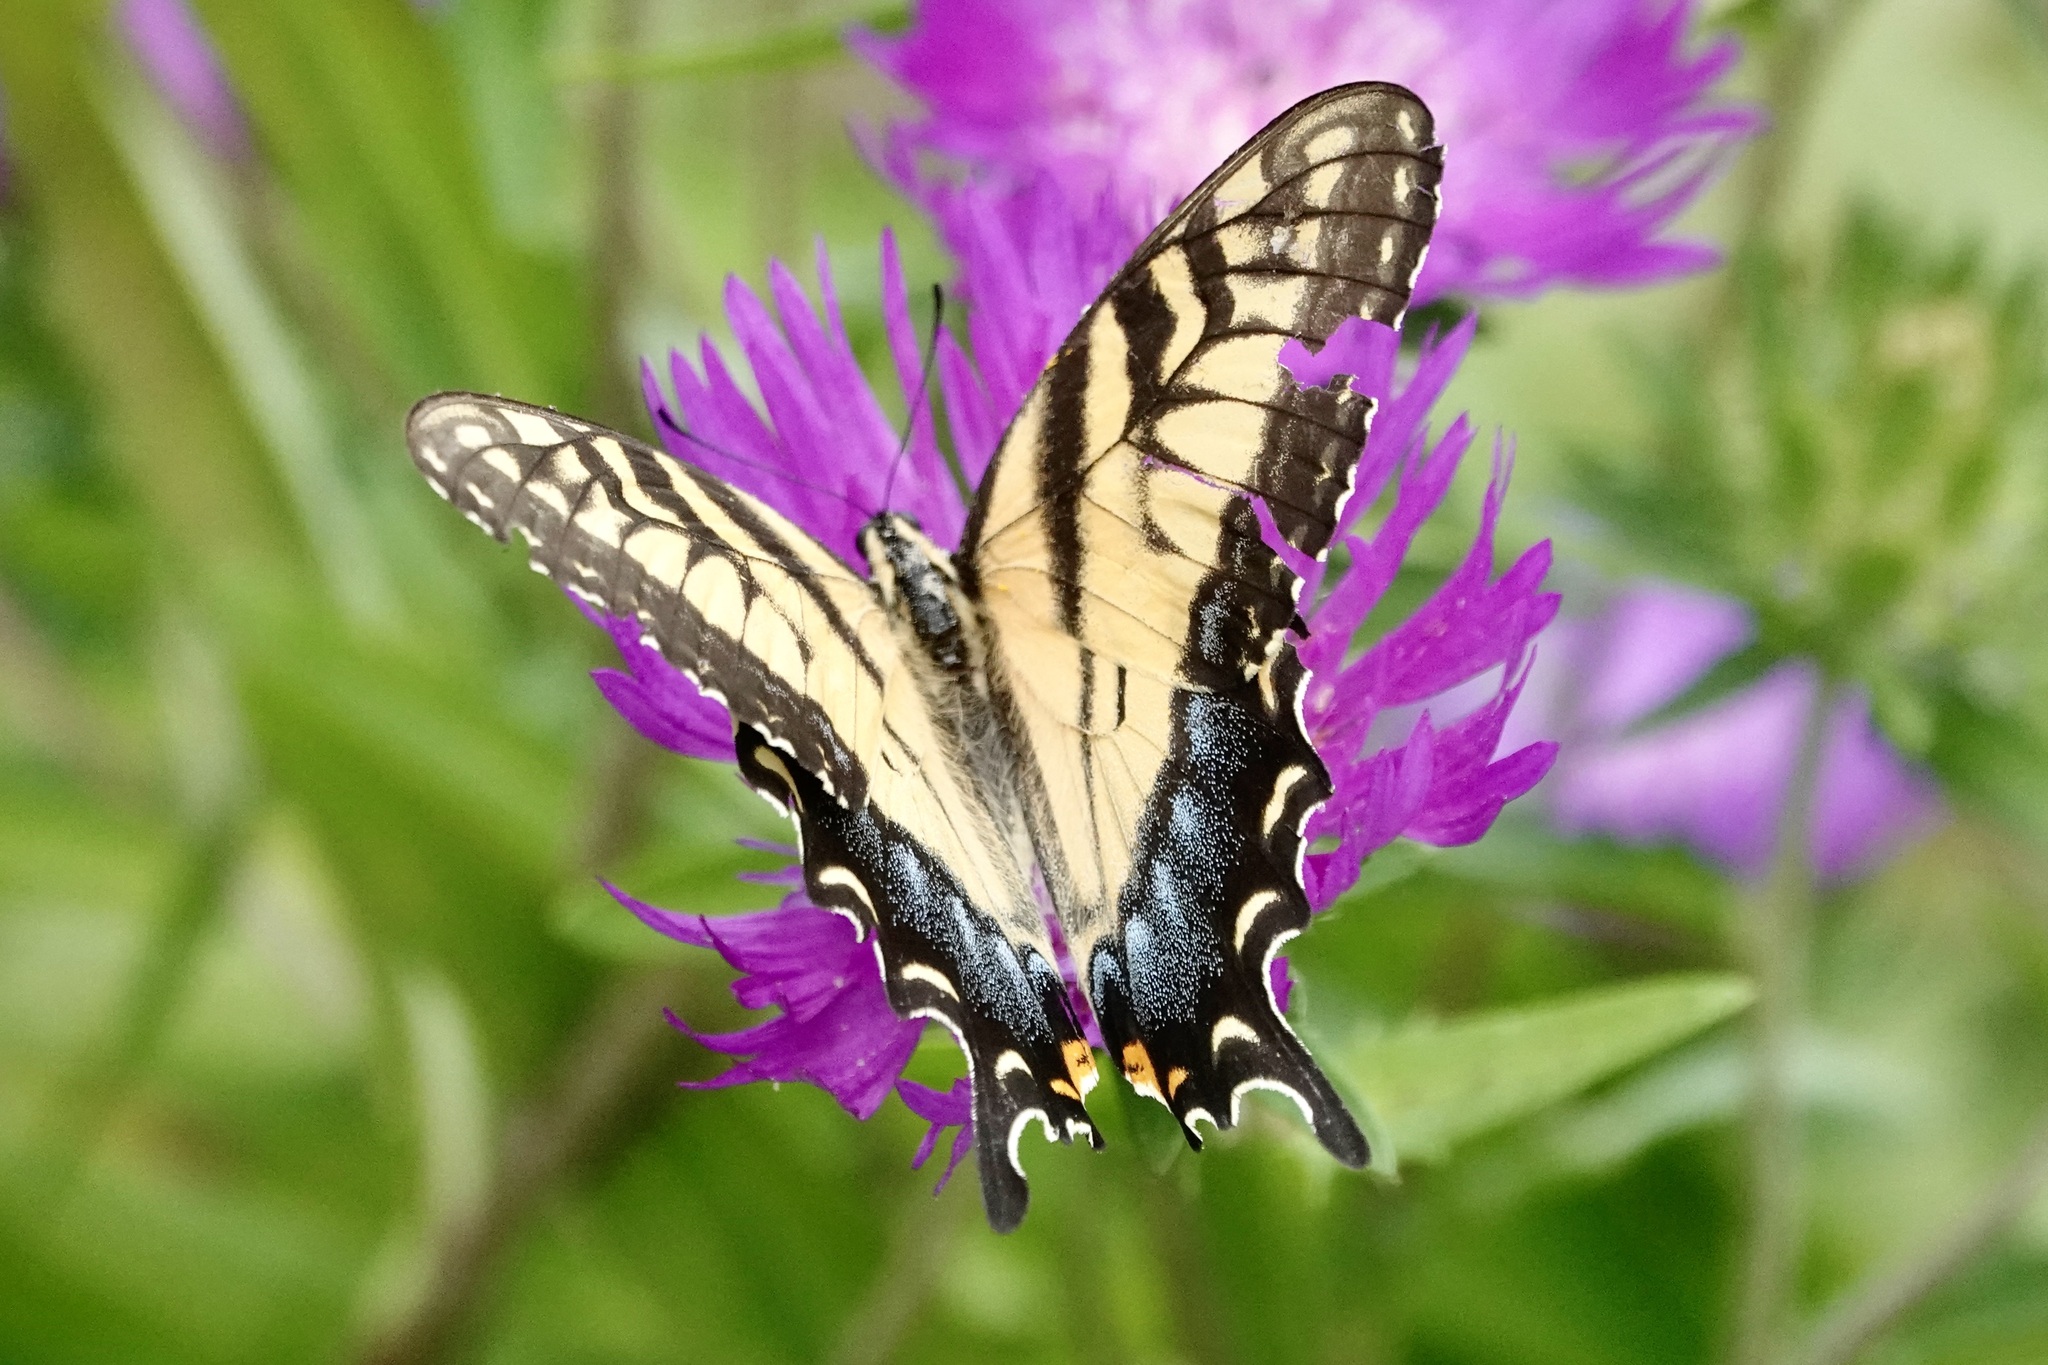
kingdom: Animalia
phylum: Arthropoda
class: Insecta
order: Lepidoptera
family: Papilionidae
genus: Papilio
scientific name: Papilio glaucus
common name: Tiger swallowtail
